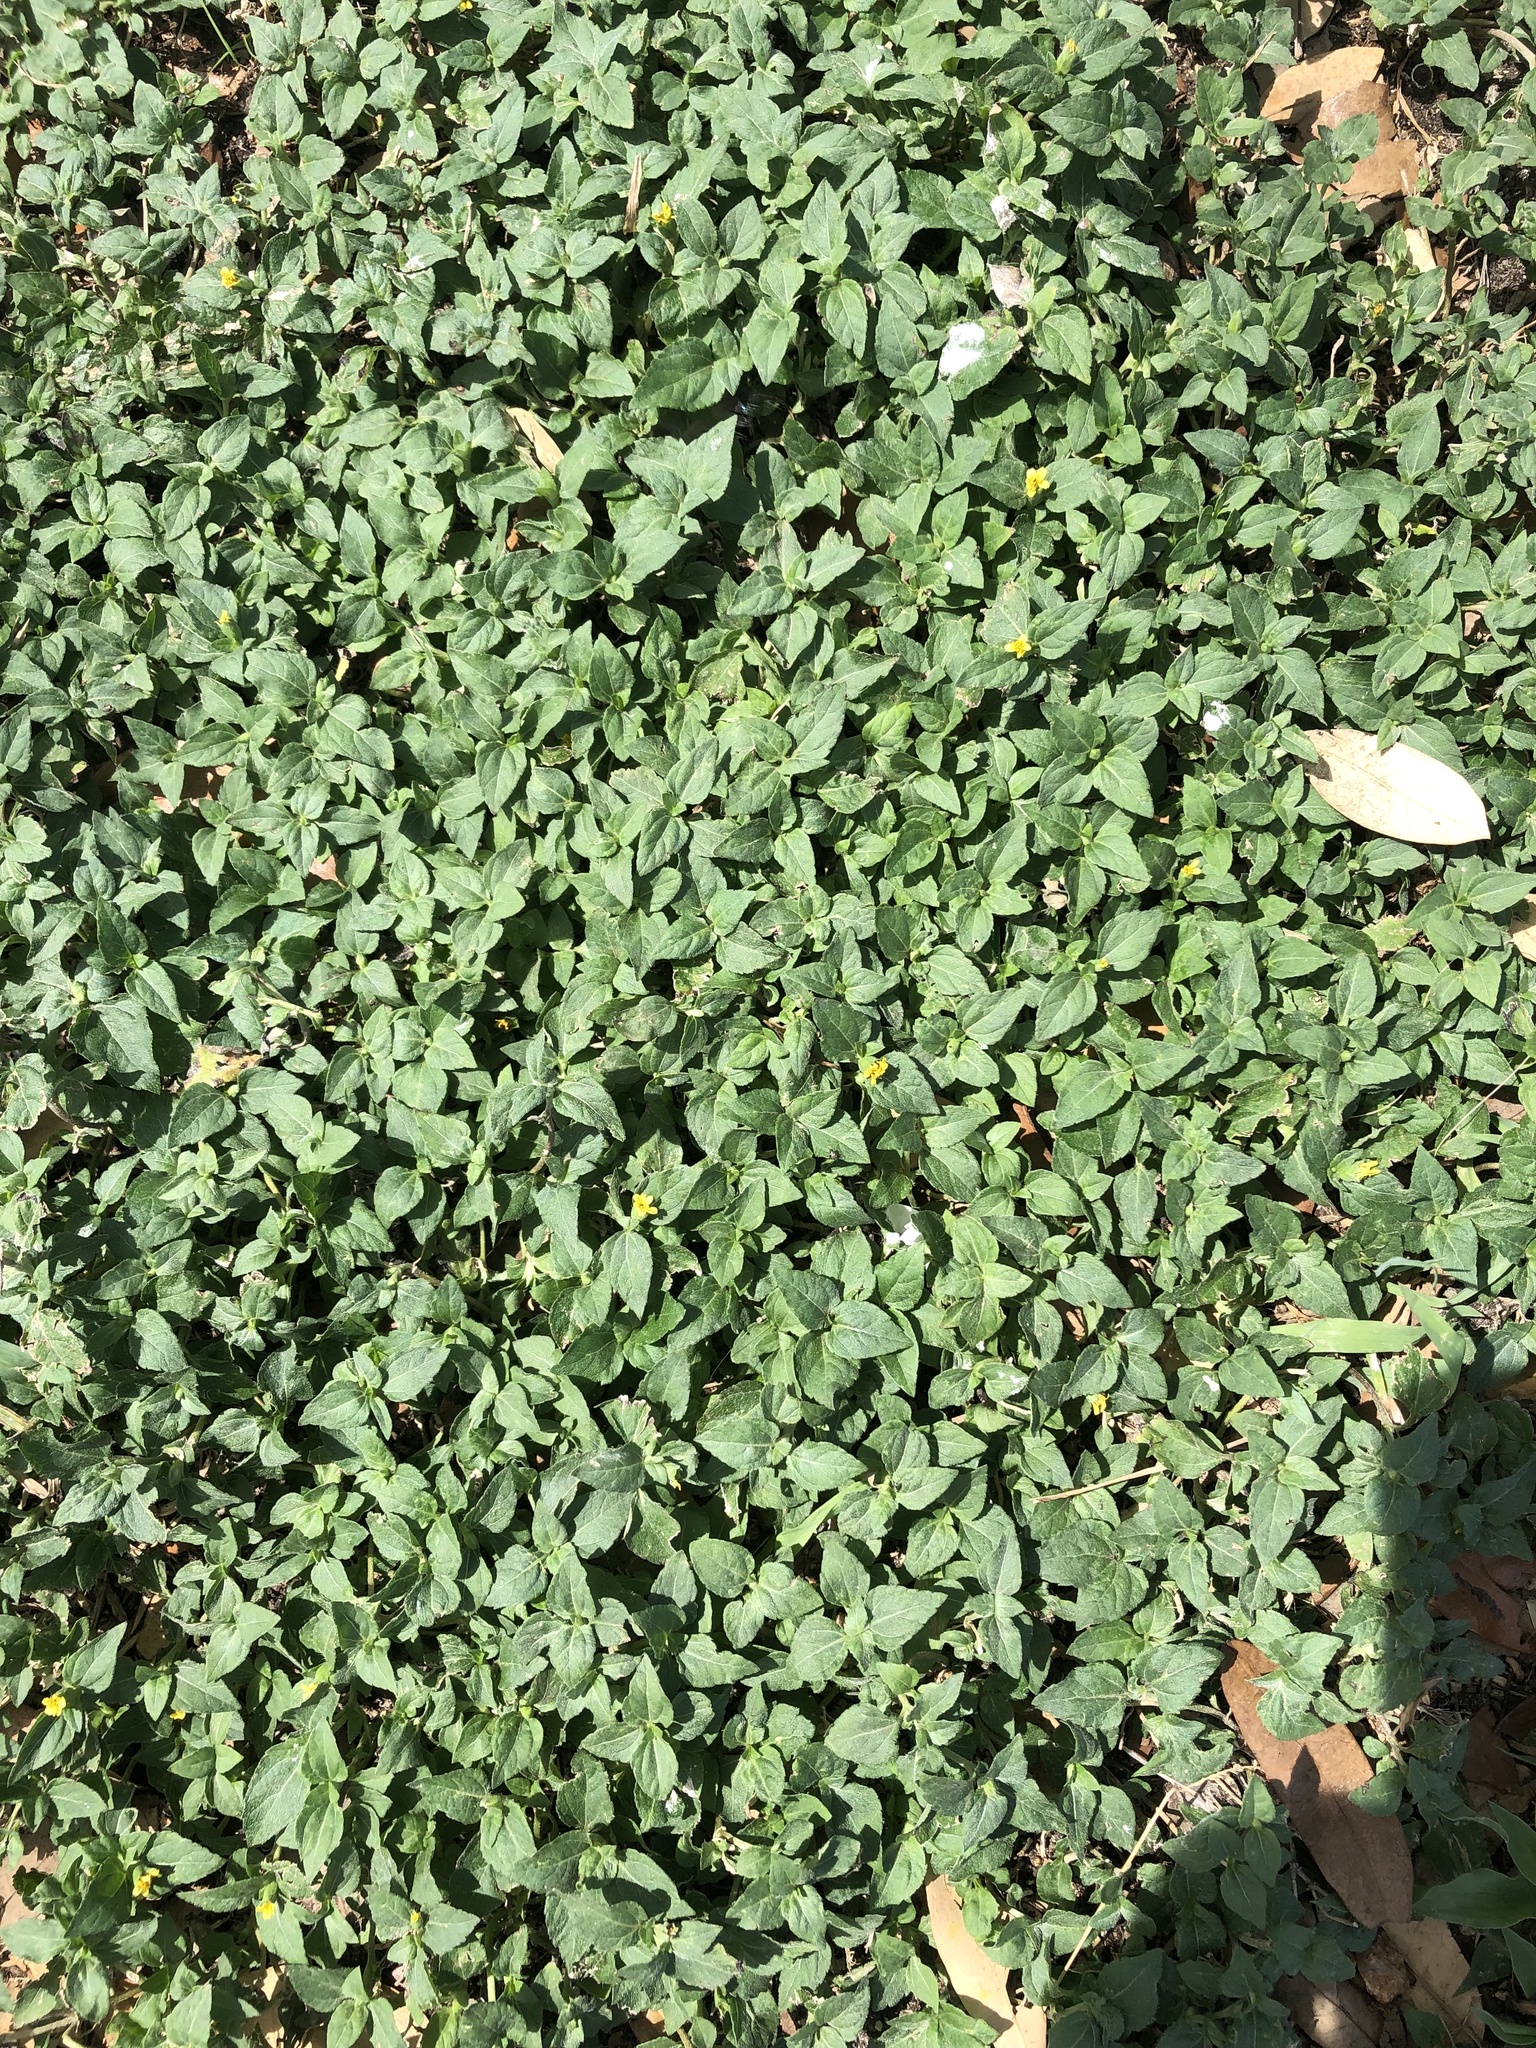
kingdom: Plantae
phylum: Tracheophyta
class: Magnoliopsida
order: Asterales
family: Asteraceae
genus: Calyptocarpus
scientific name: Calyptocarpus vialis
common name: Straggler daisy
